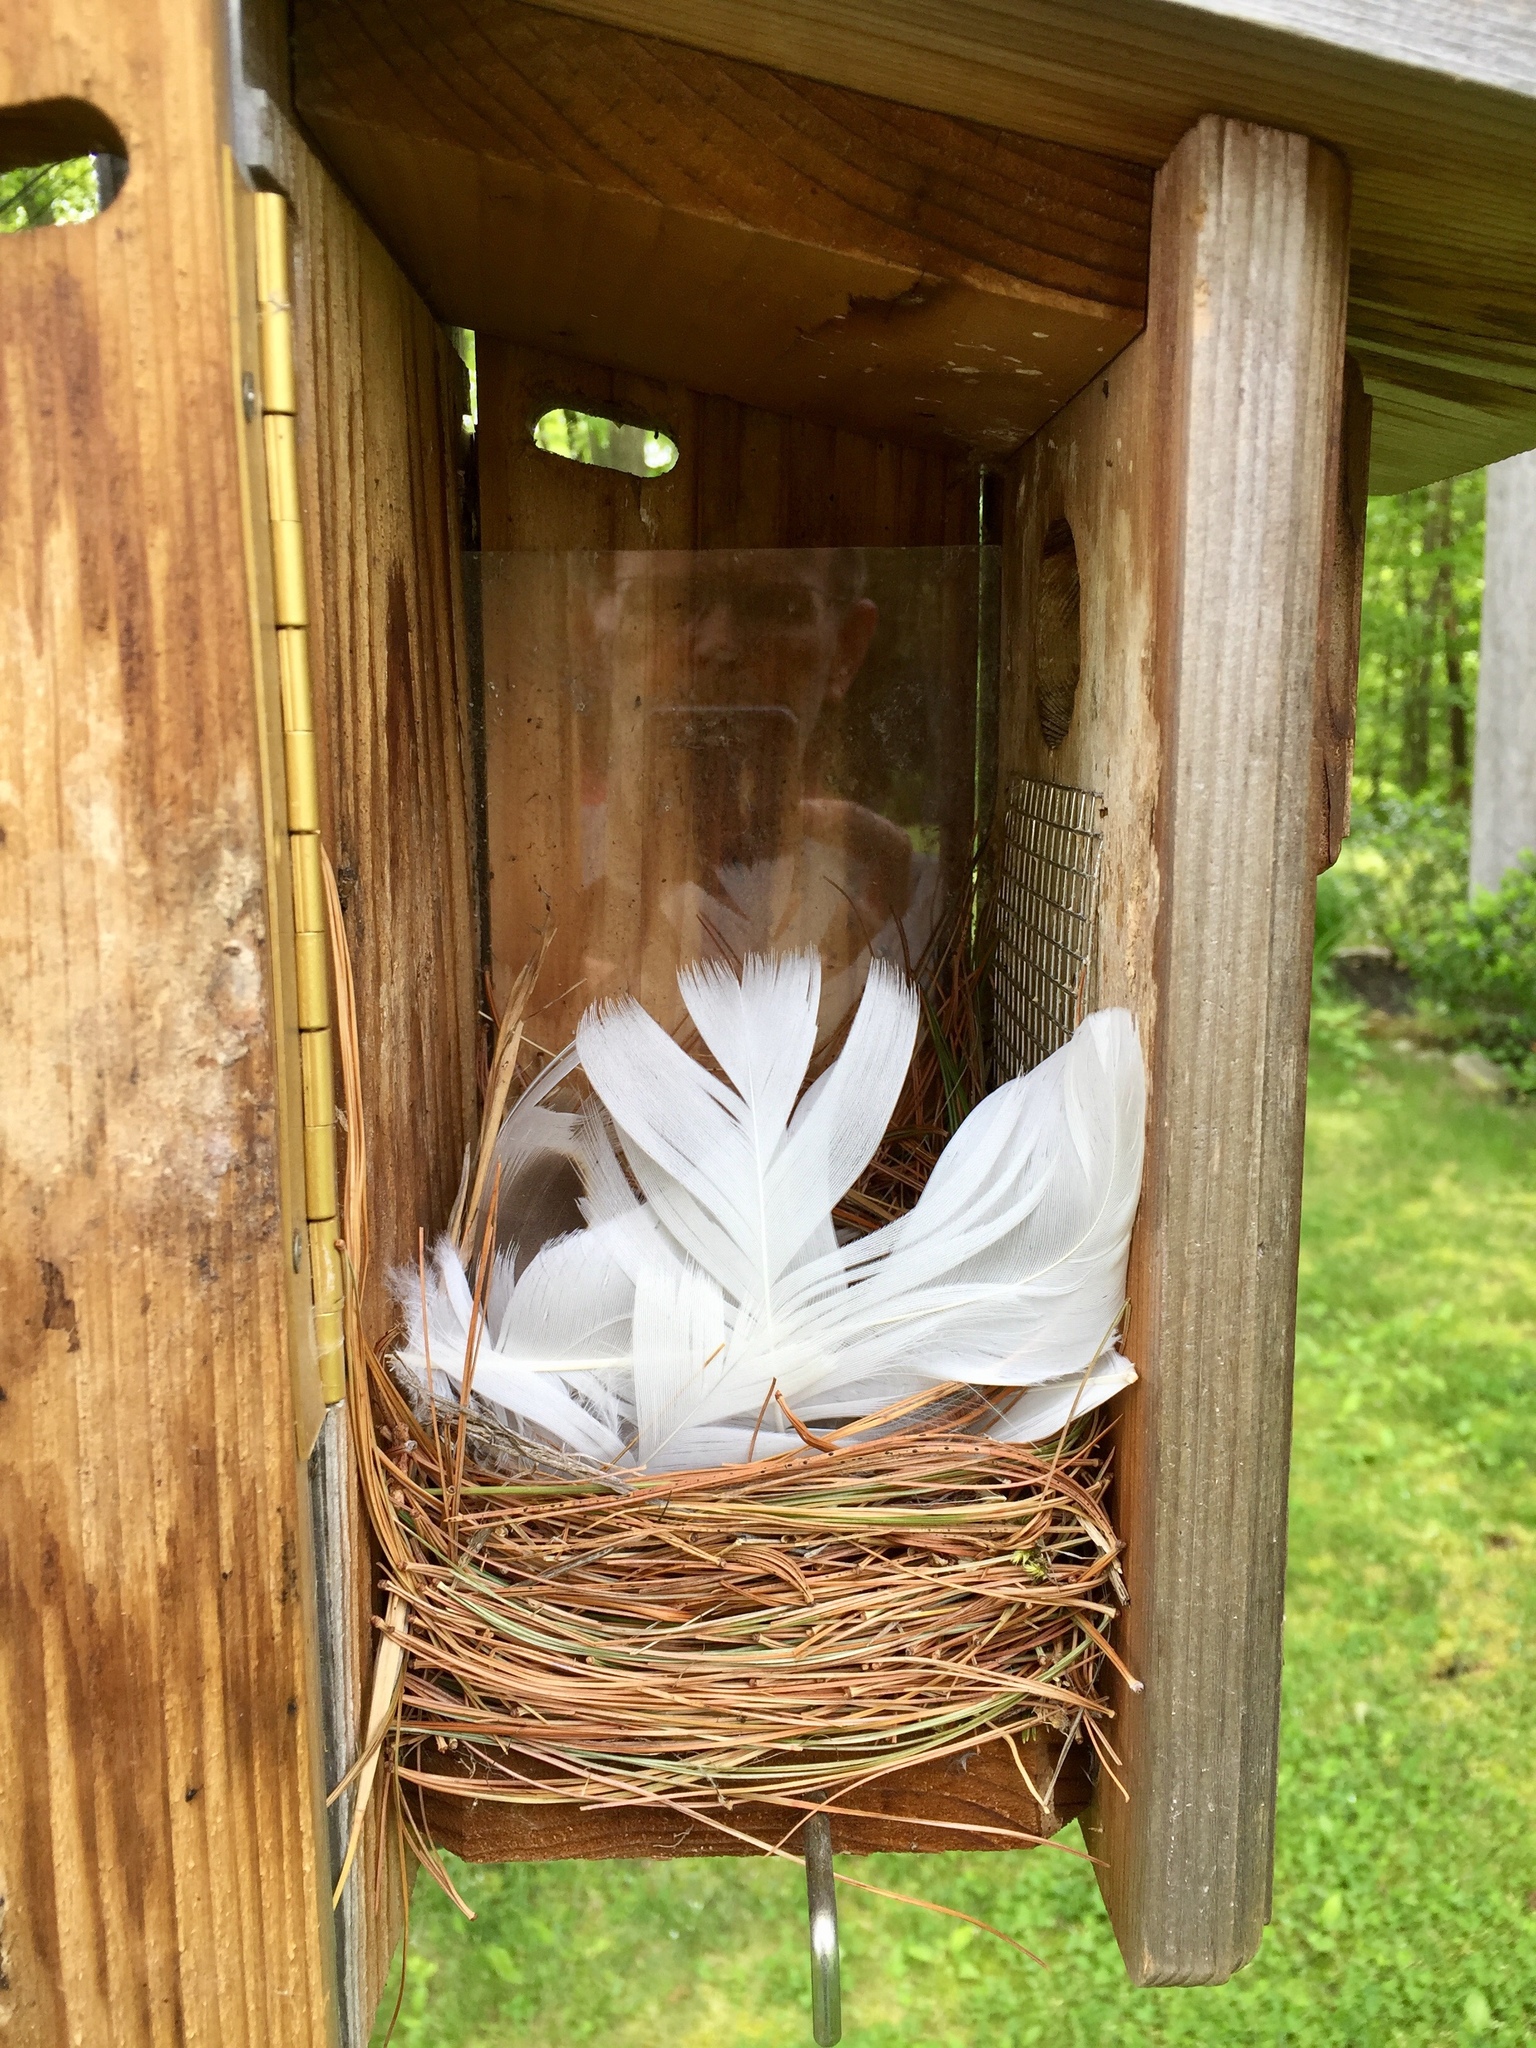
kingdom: Animalia
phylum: Chordata
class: Aves
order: Passeriformes
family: Hirundinidae
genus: Tachycineta
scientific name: Tachycineta bicolor
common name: Tree swallow
